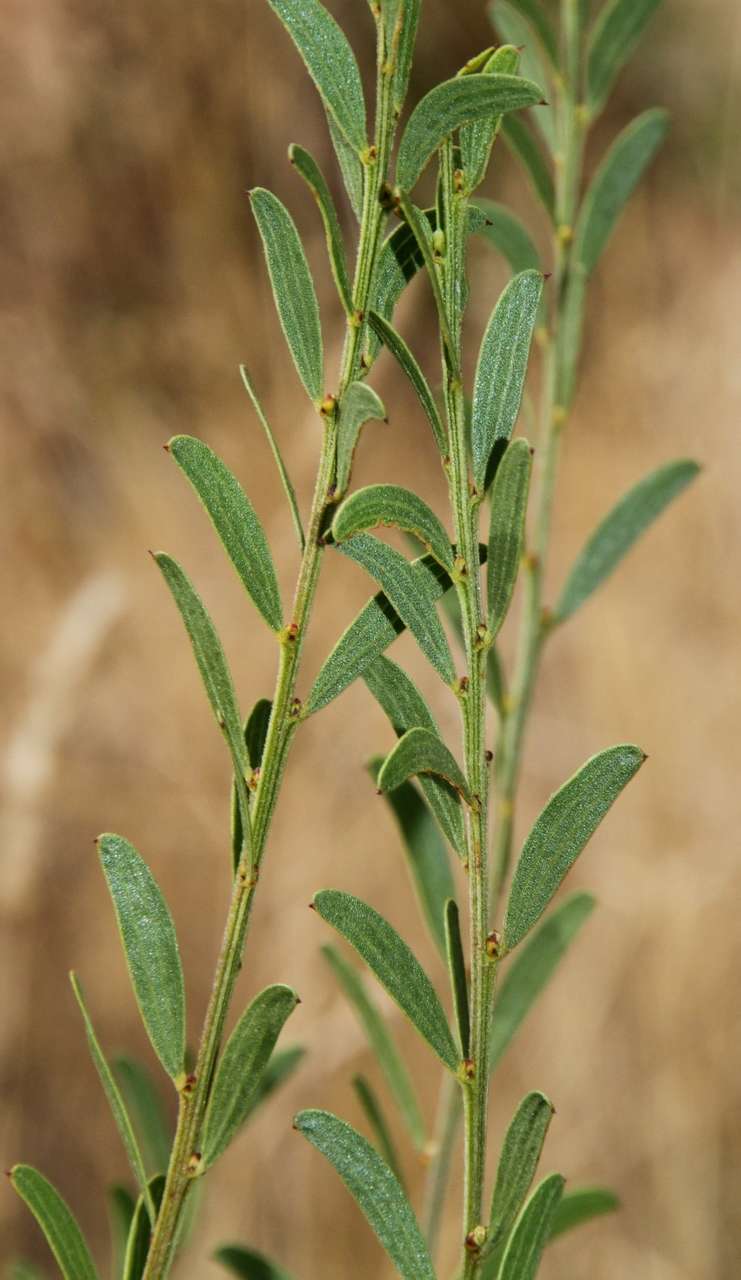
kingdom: Plantae
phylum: Tracheophyta
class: Magnoliopsida
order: Fabales
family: Fabaceae
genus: Acacia
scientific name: Acacia rostriformis
